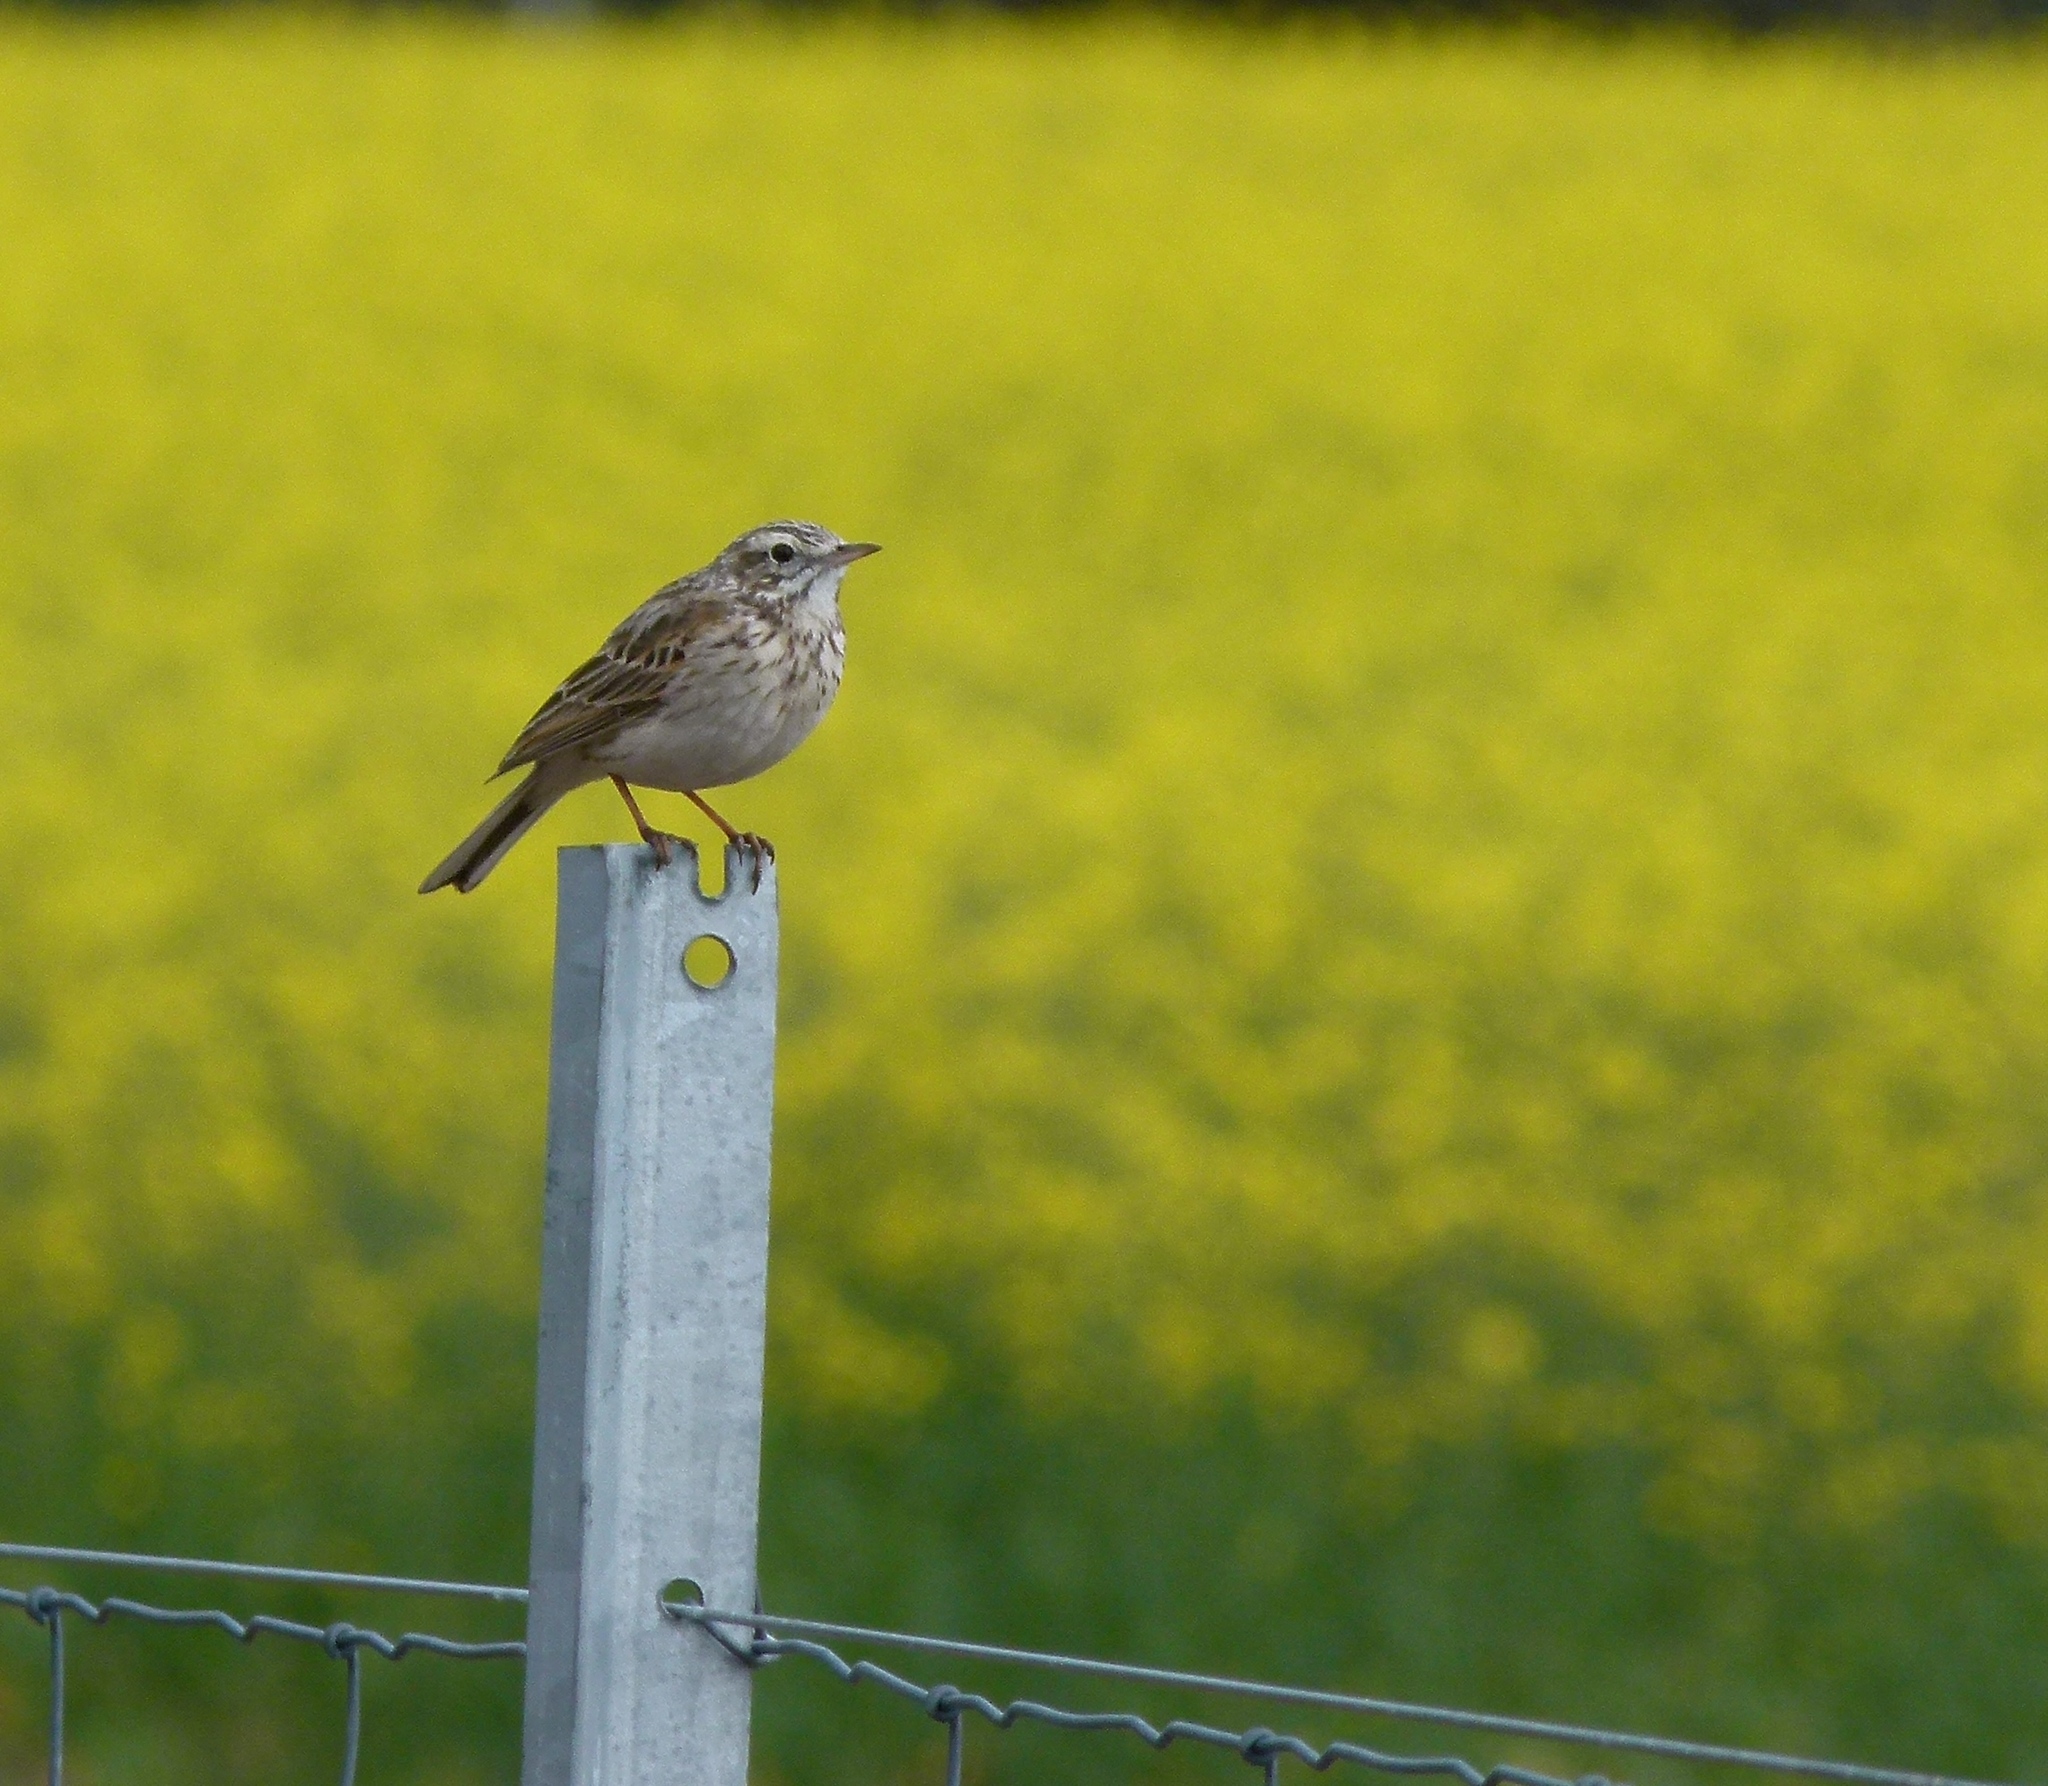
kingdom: Animalia
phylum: Chordata
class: Aves
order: Passeriformes
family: Motacillidae
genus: Anthus
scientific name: Anthus australis
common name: Australian pipit
